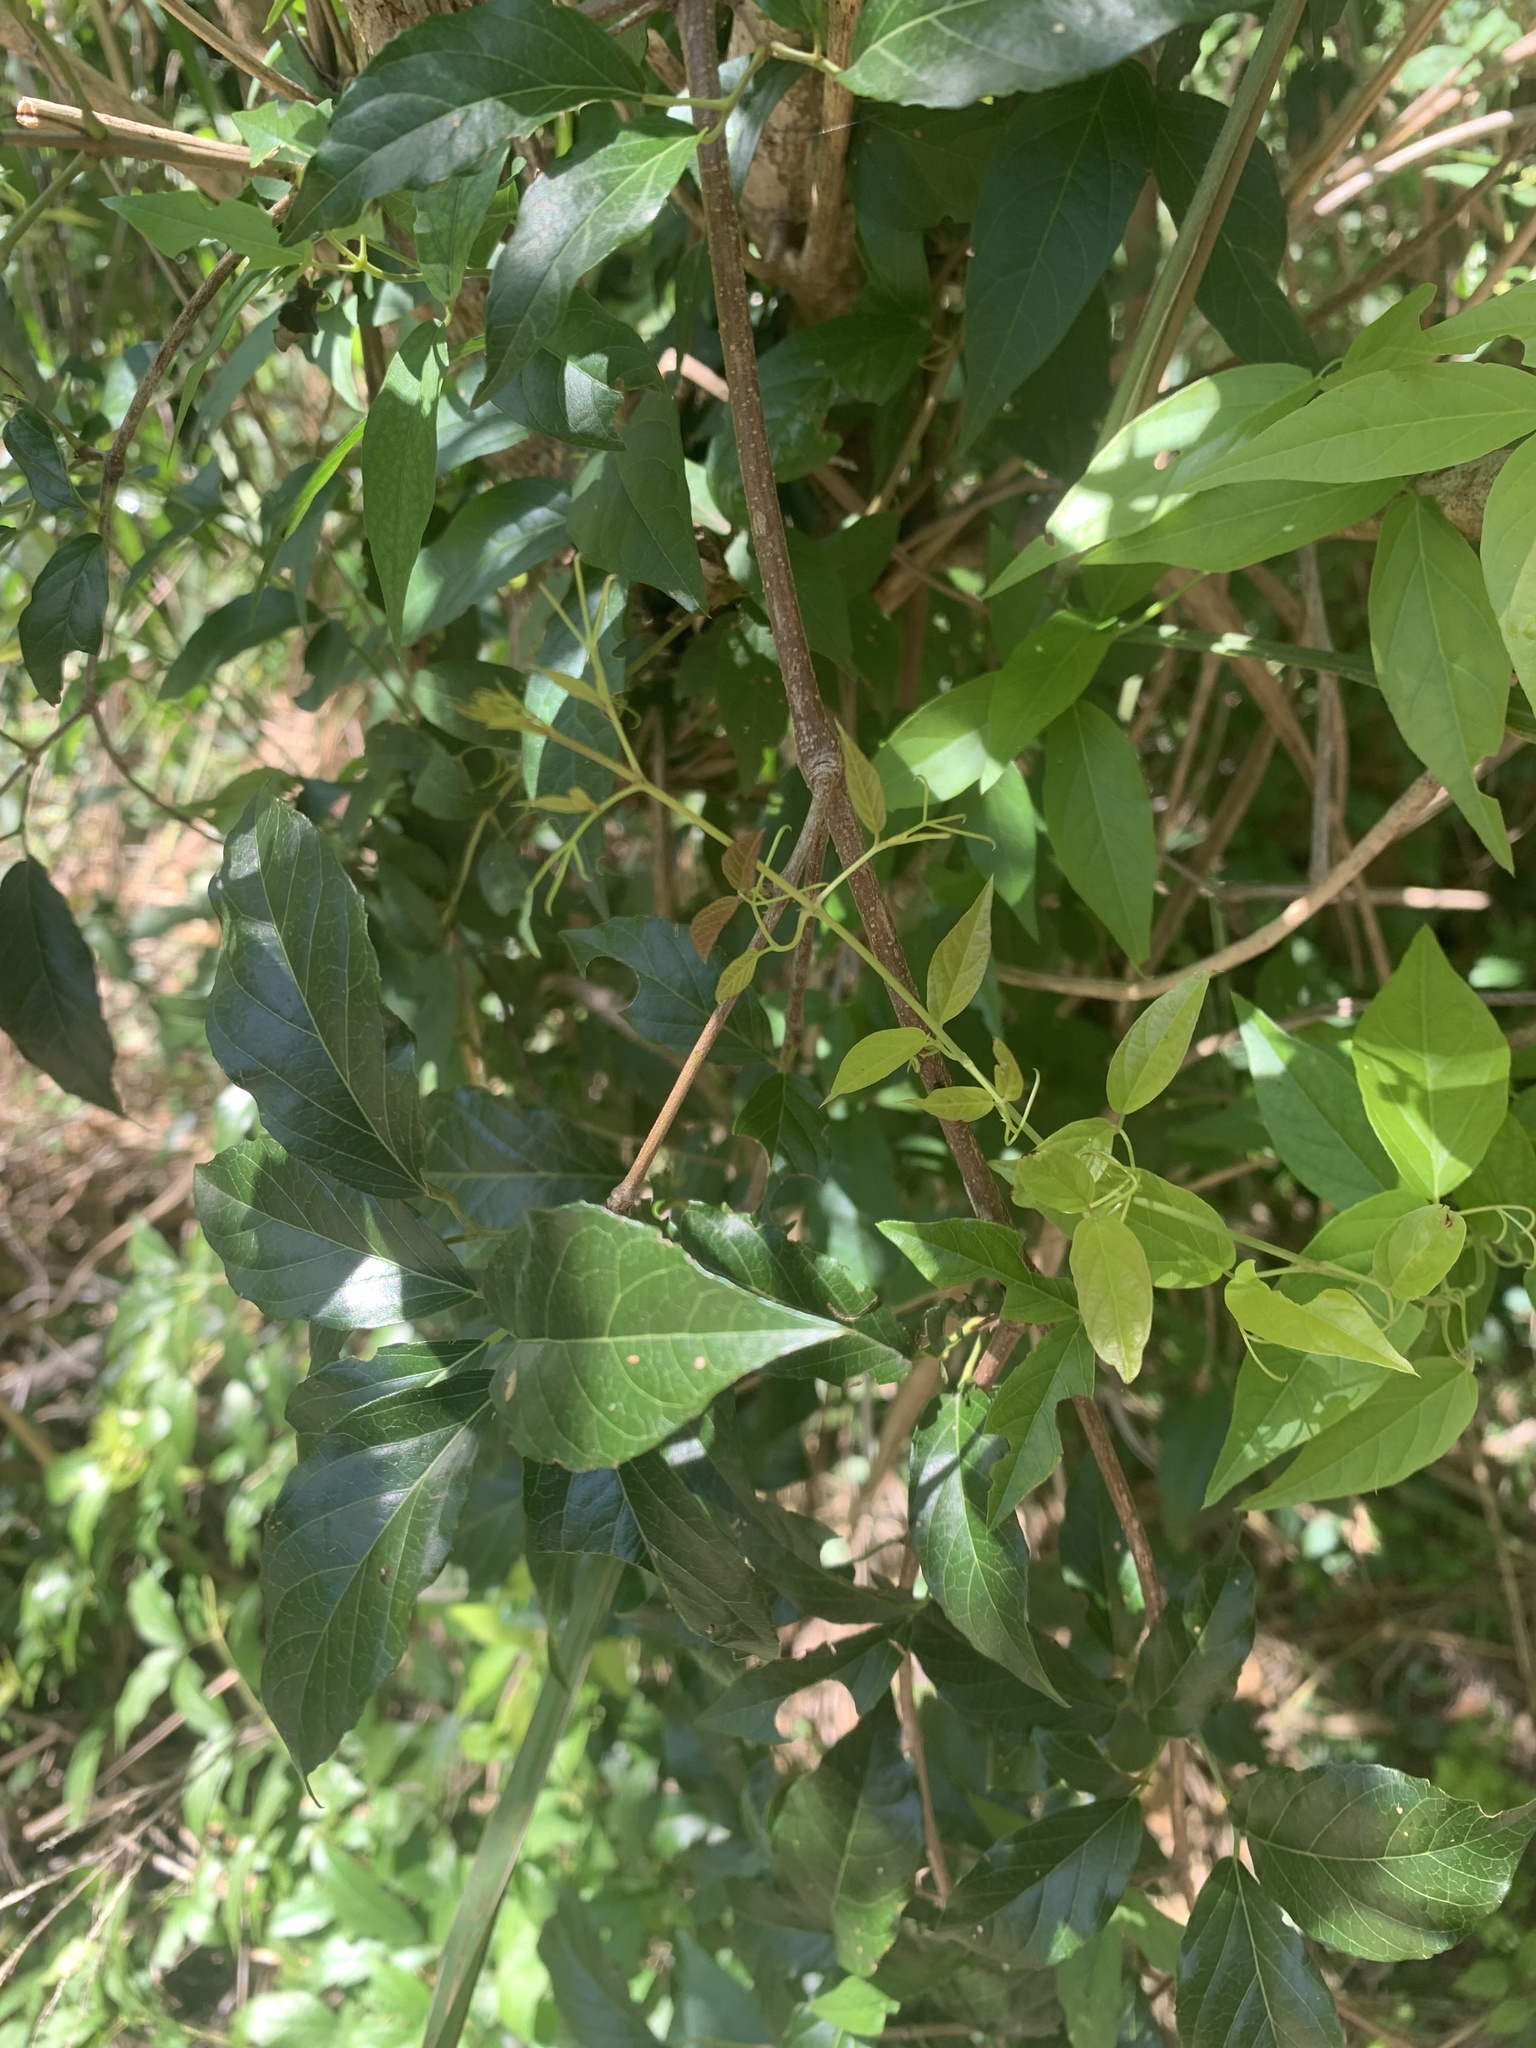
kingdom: Plantae
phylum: Tracheophyta
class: Magnoliopsida
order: Lamiales
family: Bignoniaceae
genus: Dolichandra
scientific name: Dolichandra unguis-cati
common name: Catclaw vine
